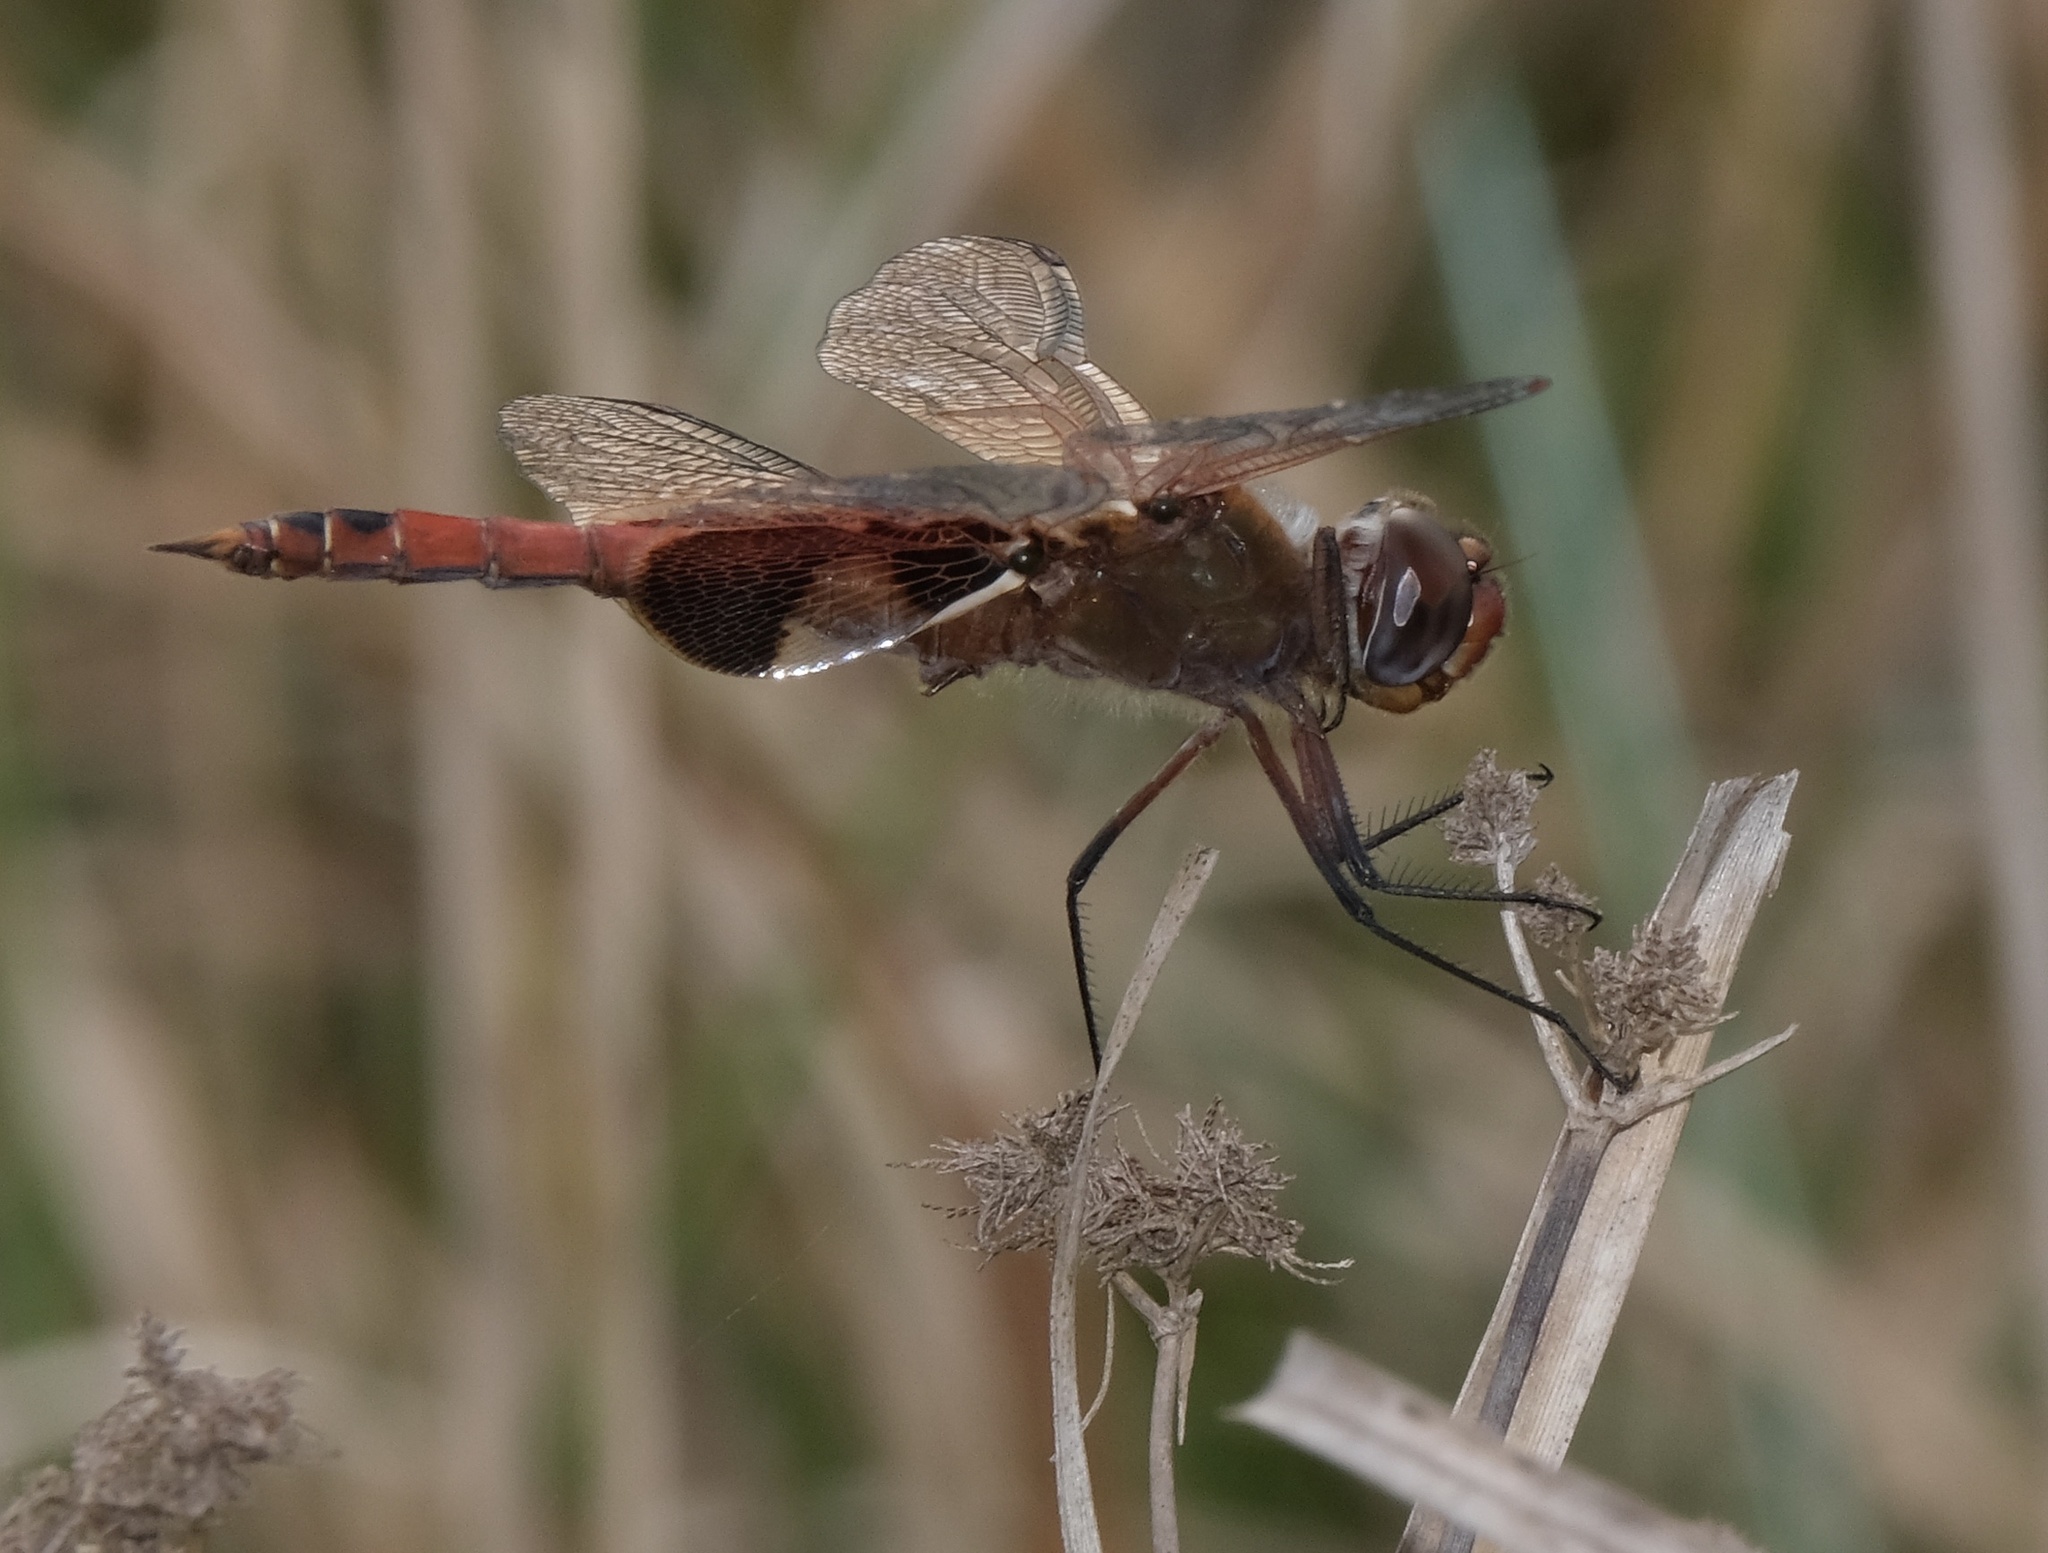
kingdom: Animalia
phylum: Arthropoda
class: Insecta
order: Odonata
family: Libellulidae
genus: Tramea
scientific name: Tramea onusta
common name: Red saddlebags
